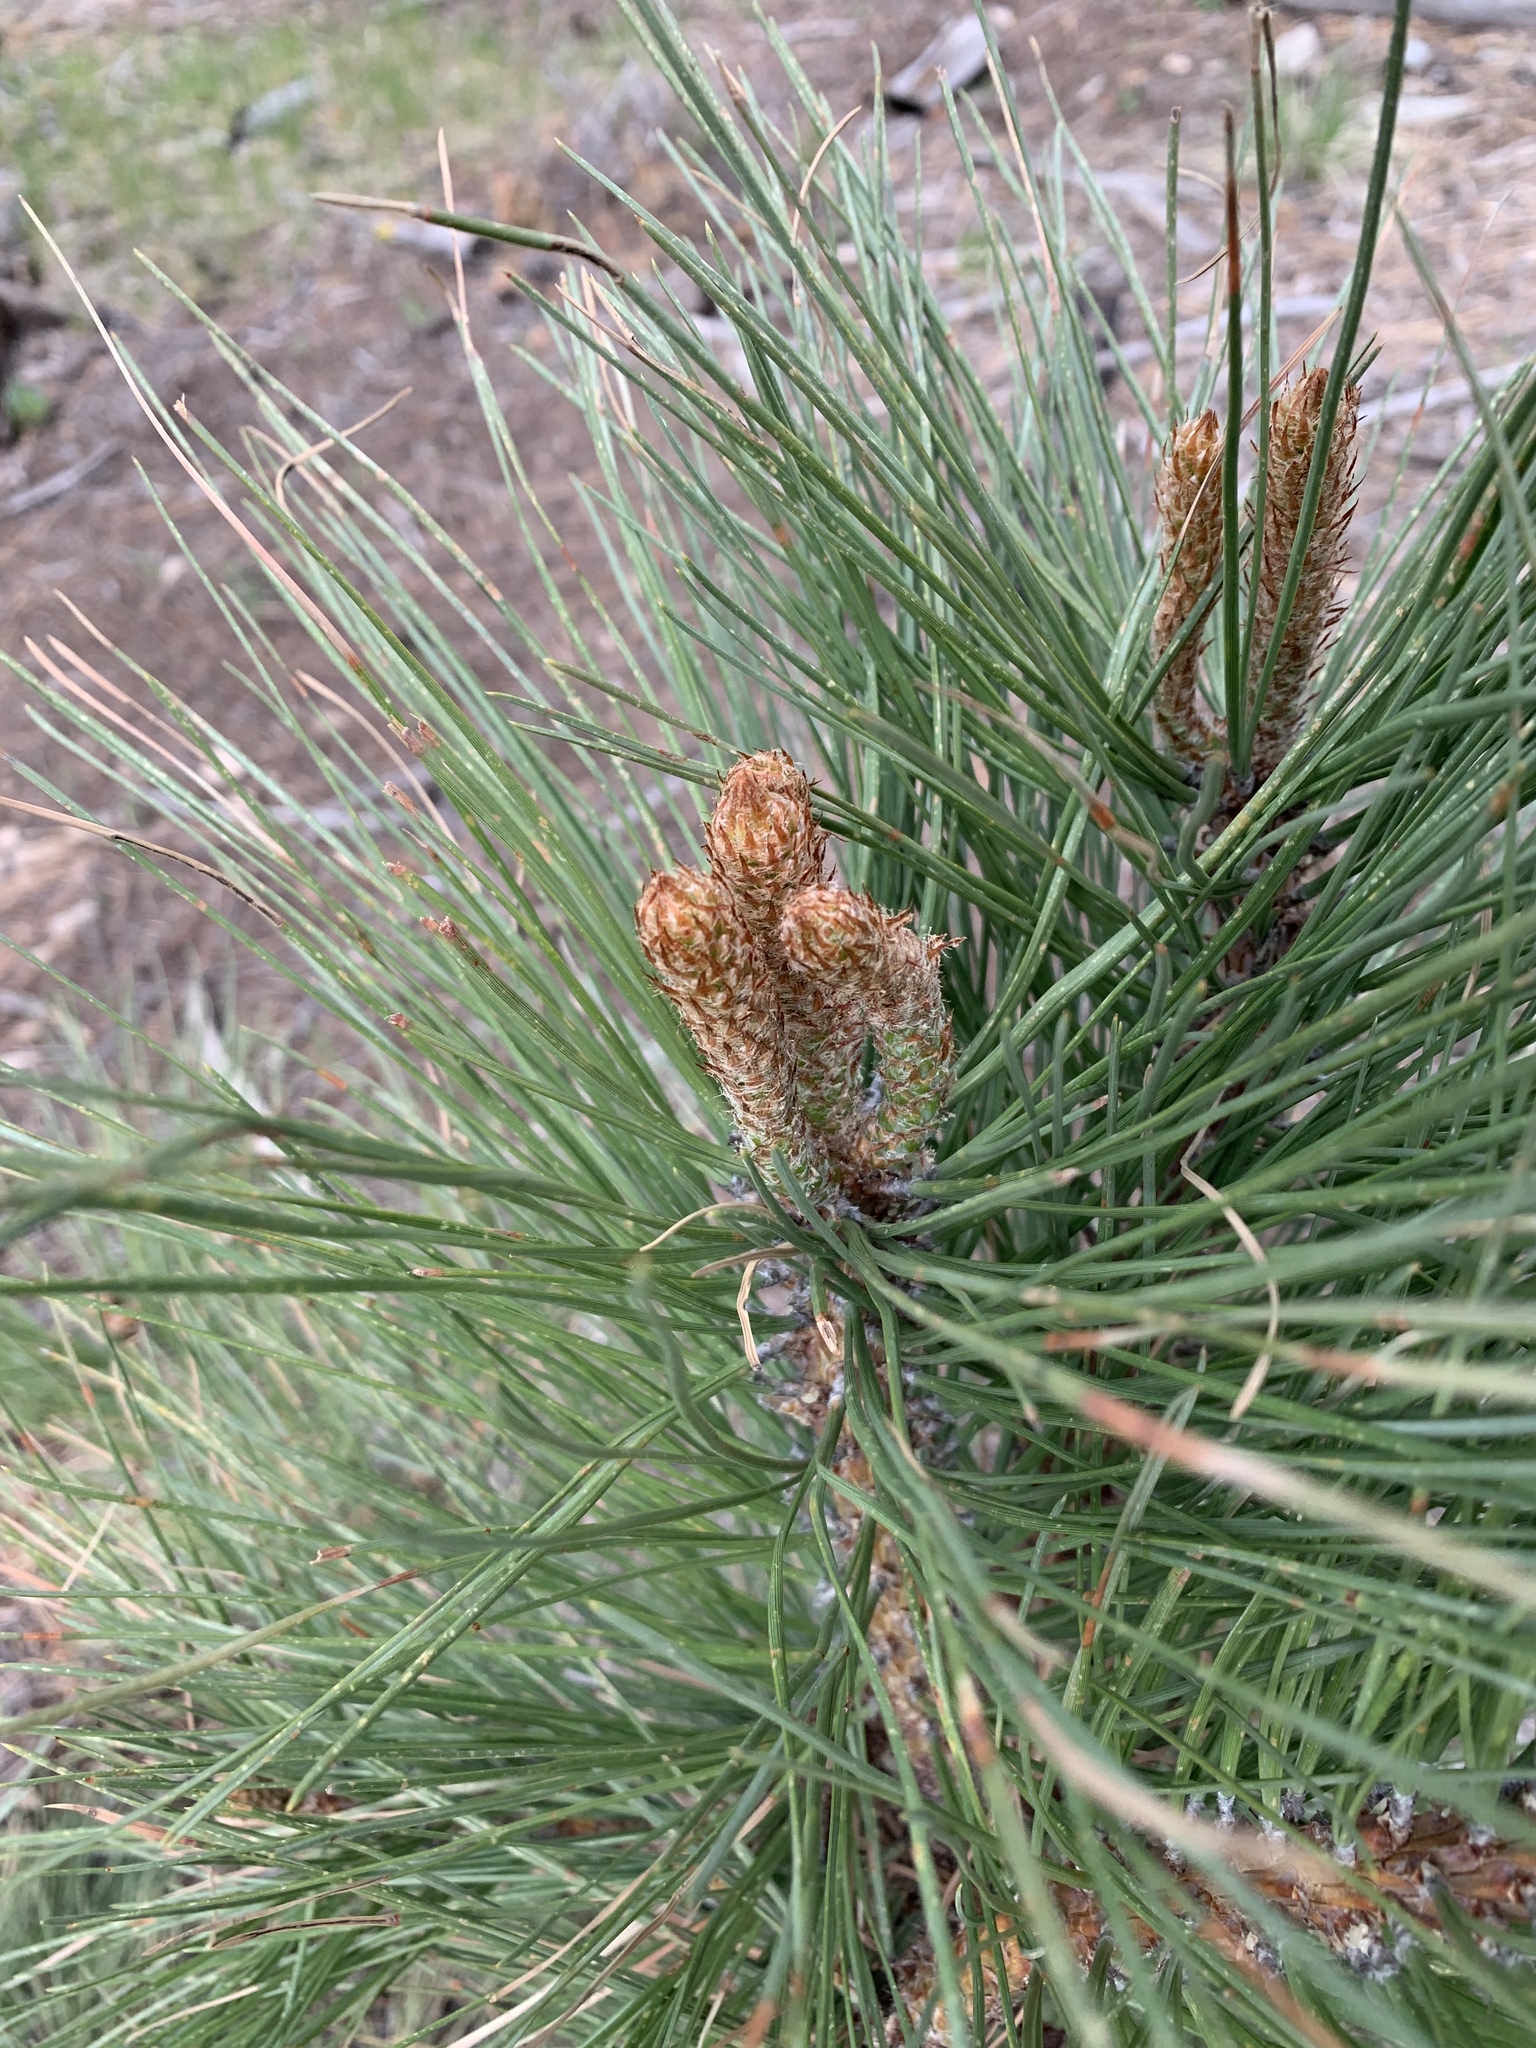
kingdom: Plantae
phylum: Tracheophyta
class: Pinopsida
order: Pinales
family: Pinaceae
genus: Pinus
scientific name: Pinus ponderosa
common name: Western yellow-pine
